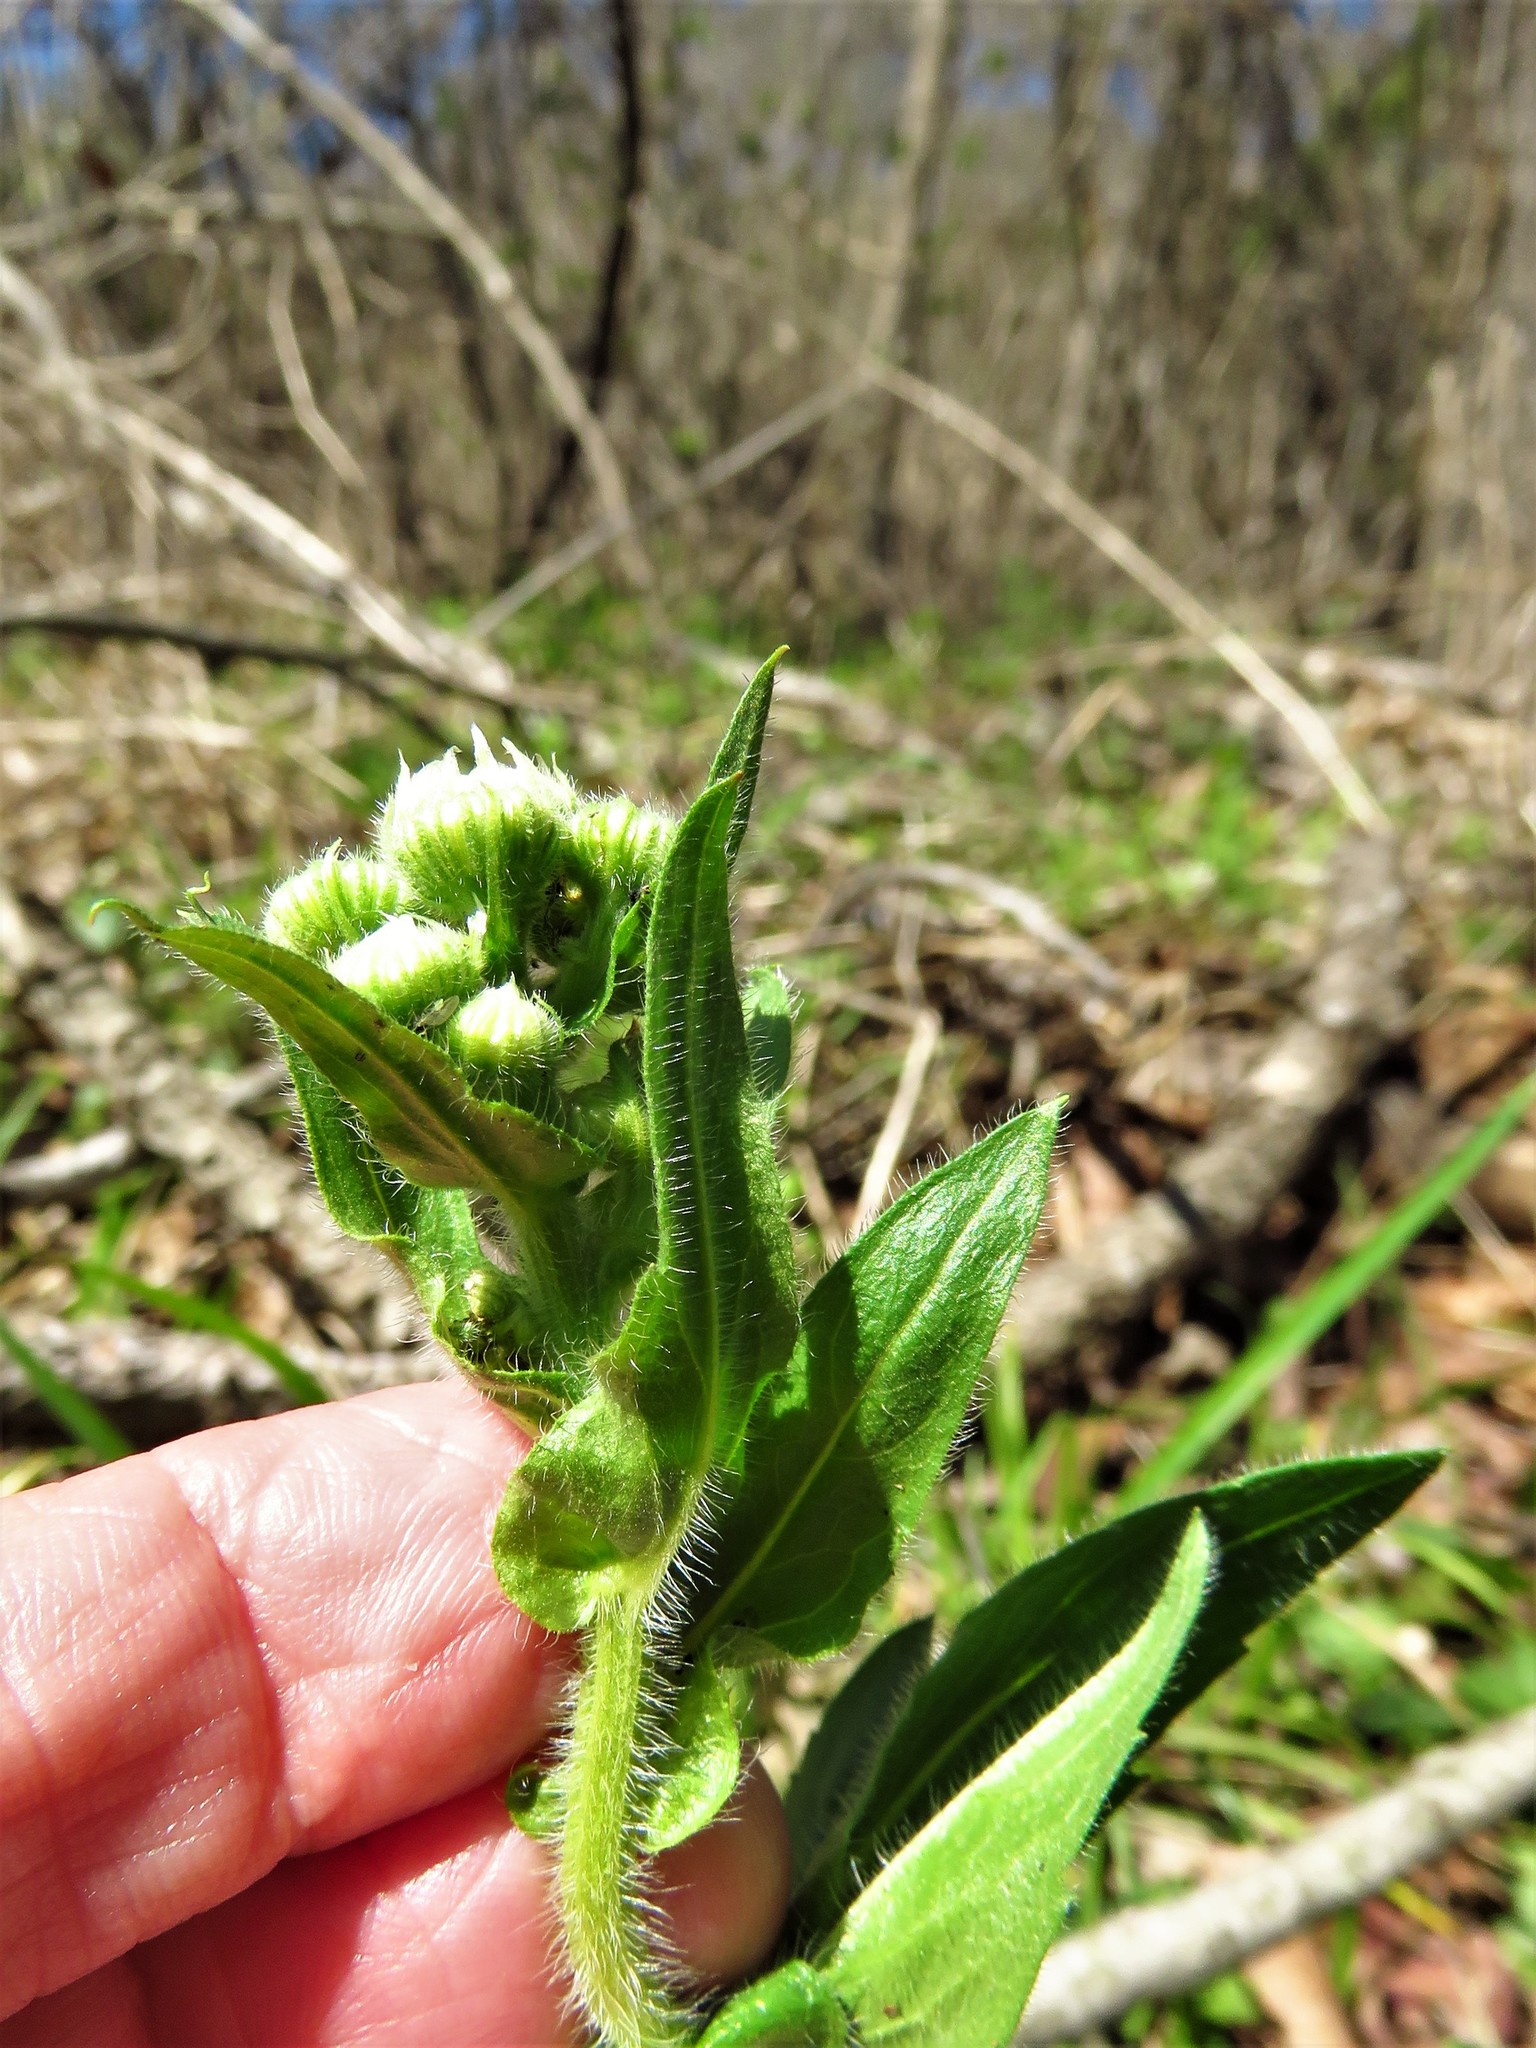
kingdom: Plantae
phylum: Tracheophyta
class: Magnoliopsida
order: Asterales
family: Asteraceae
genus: Erigeron
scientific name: Erigeron philadelphicus
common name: Robin's-plantain
